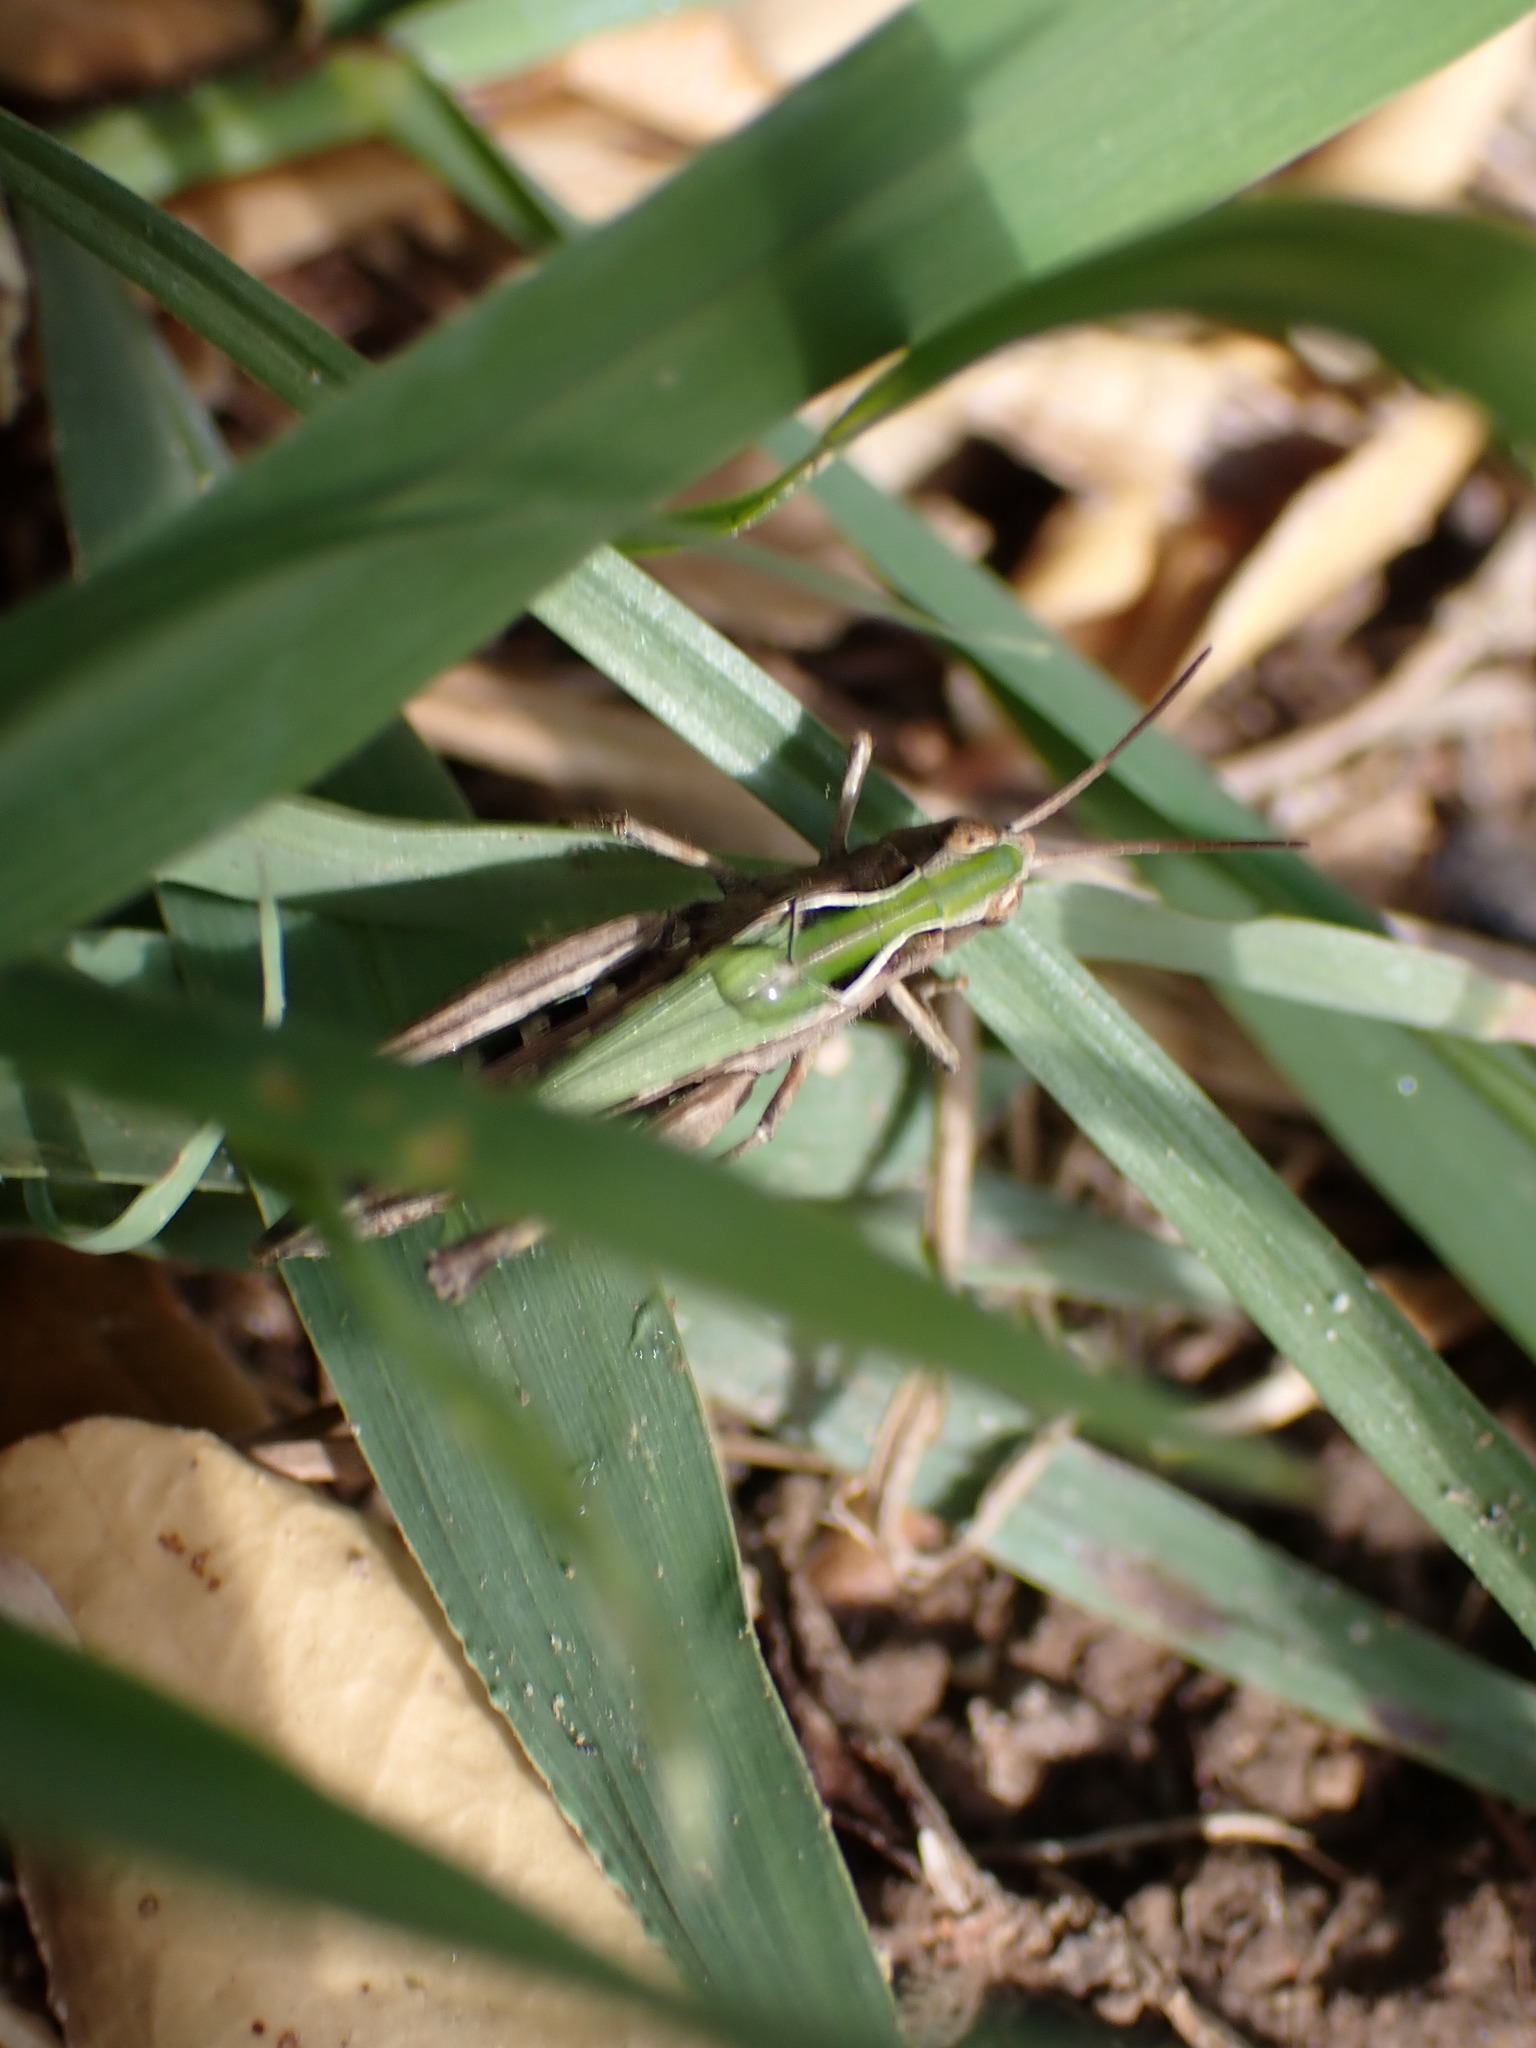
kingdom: Animalia
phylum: Arthropoda
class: Insecta
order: Orthoptera
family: Acrididae
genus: Omocestus
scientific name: Omocestus rufipes
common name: Woodland grasshopper
